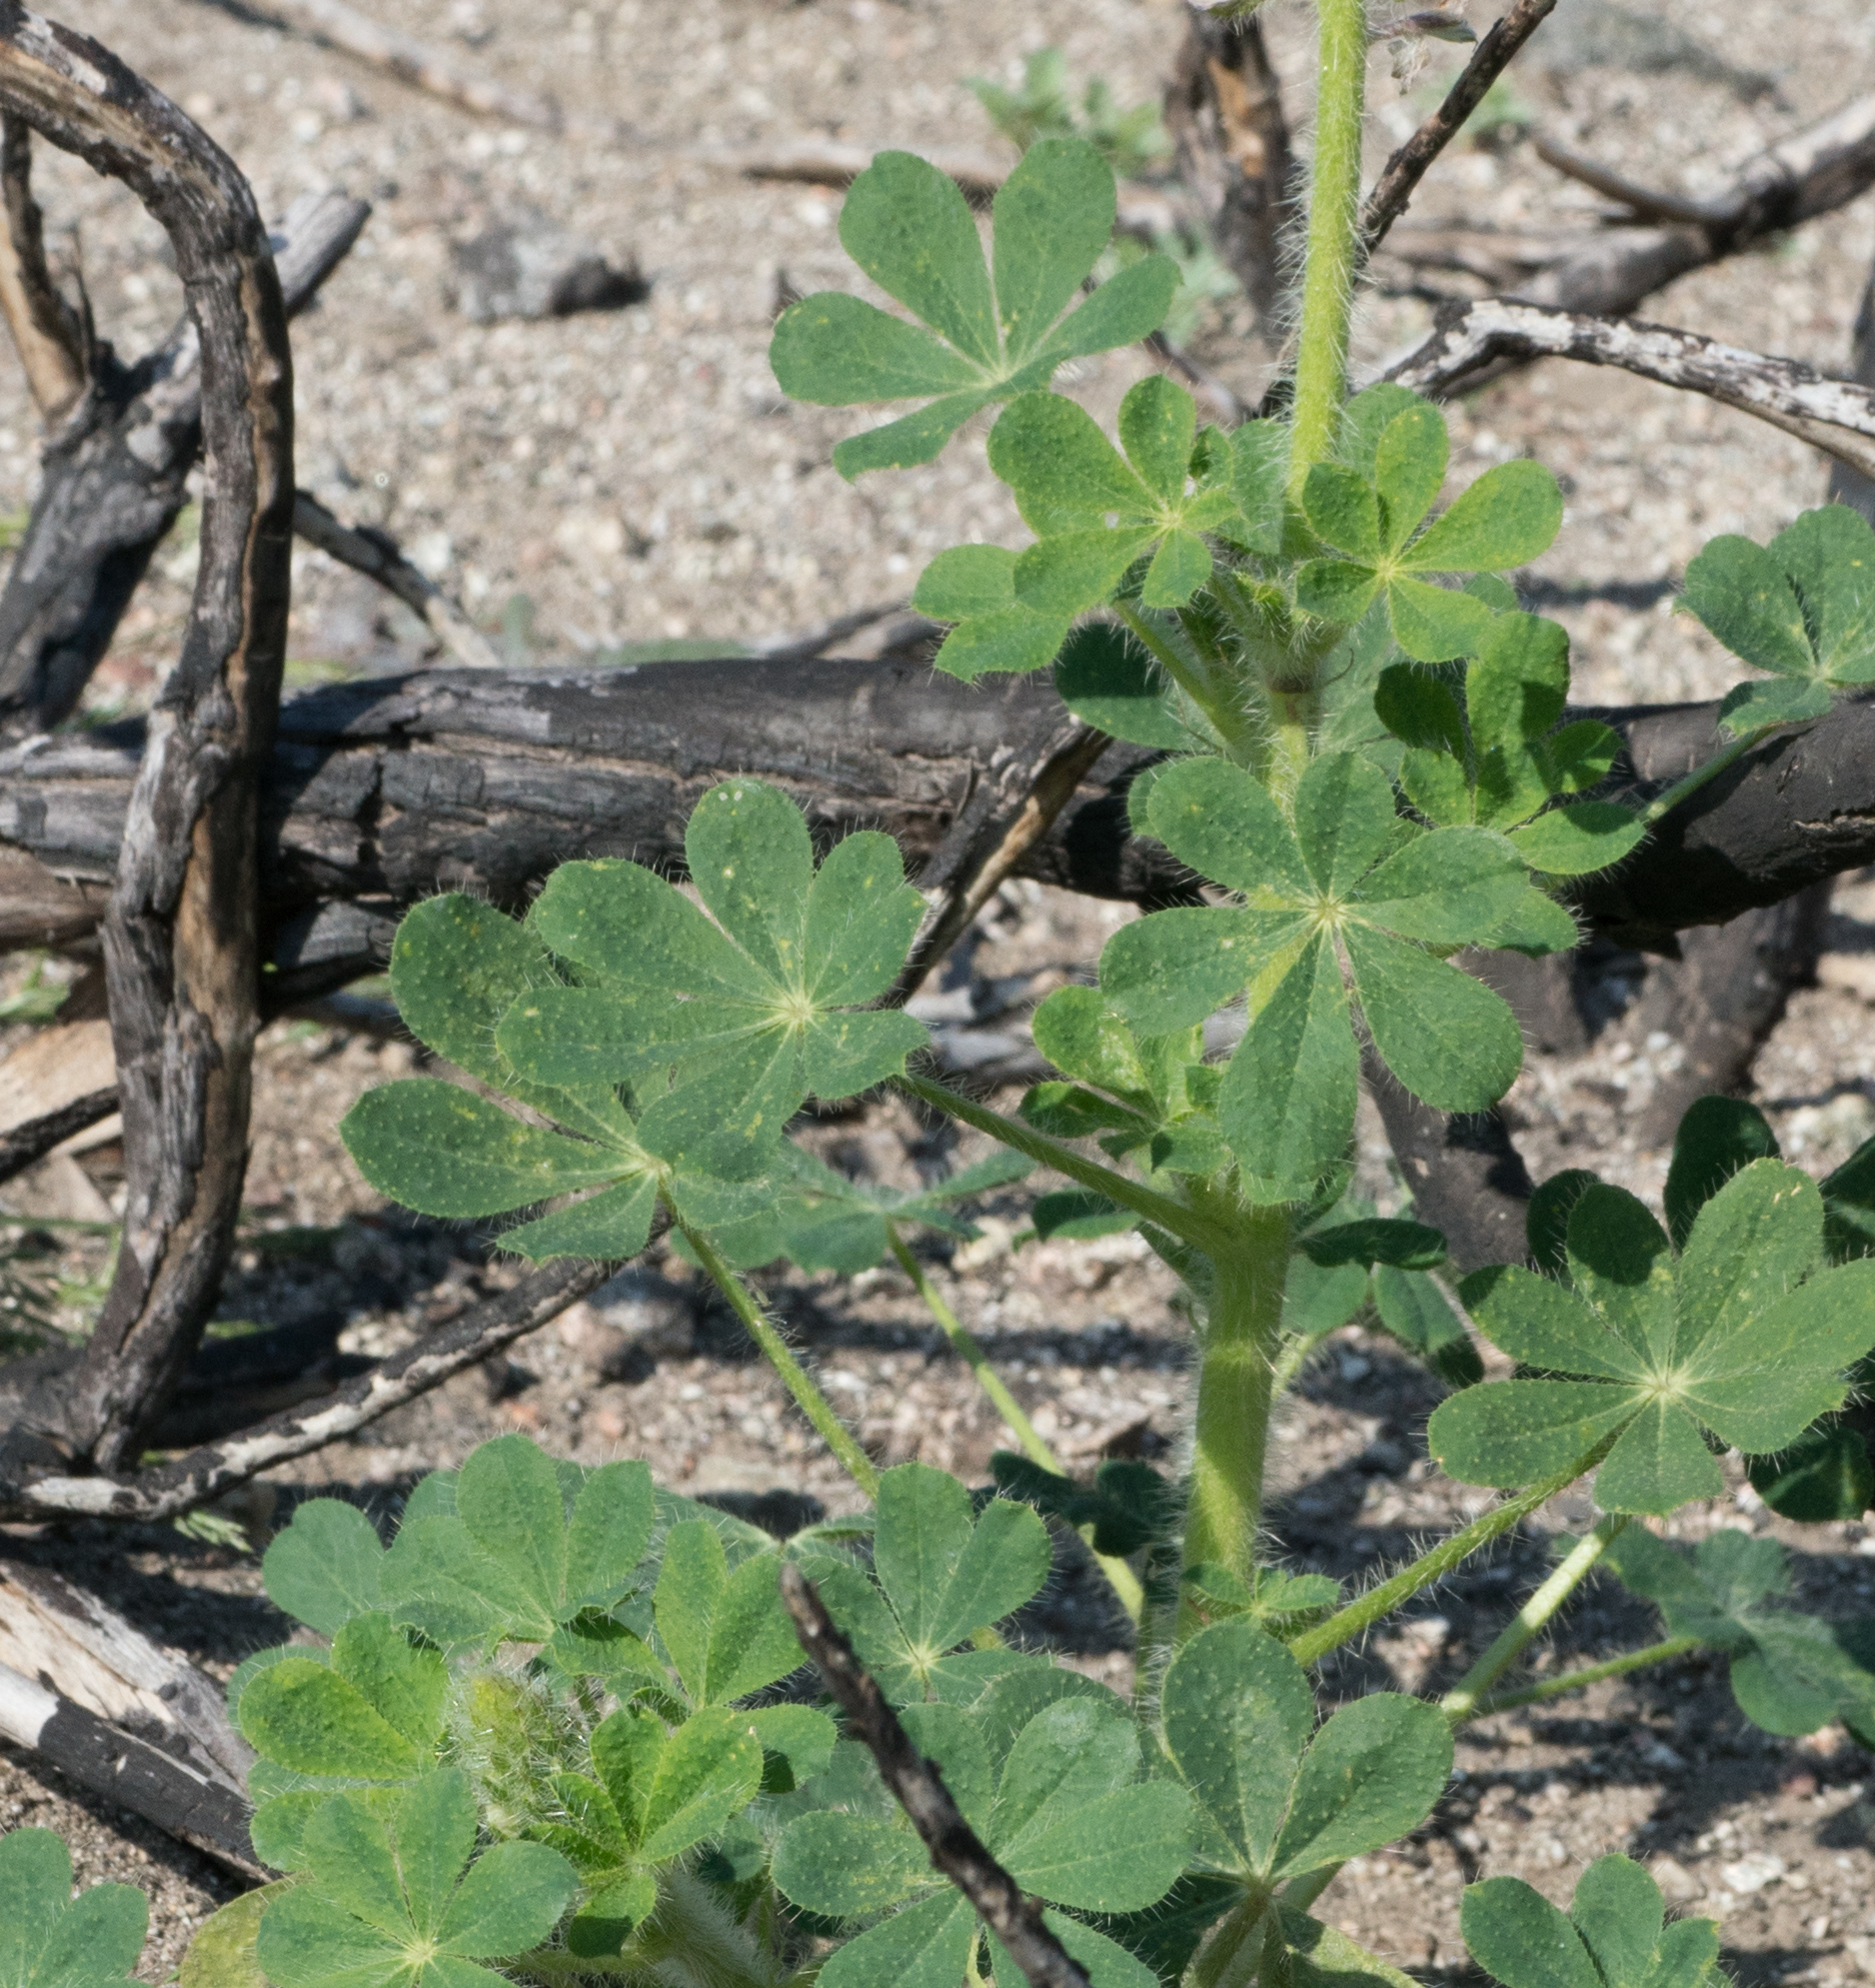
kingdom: Plantae
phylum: Tracheophyta
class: Magnoliopsida
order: Fabales
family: Fabaceae
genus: Lupinus
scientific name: Lupinus hirsutissimus
